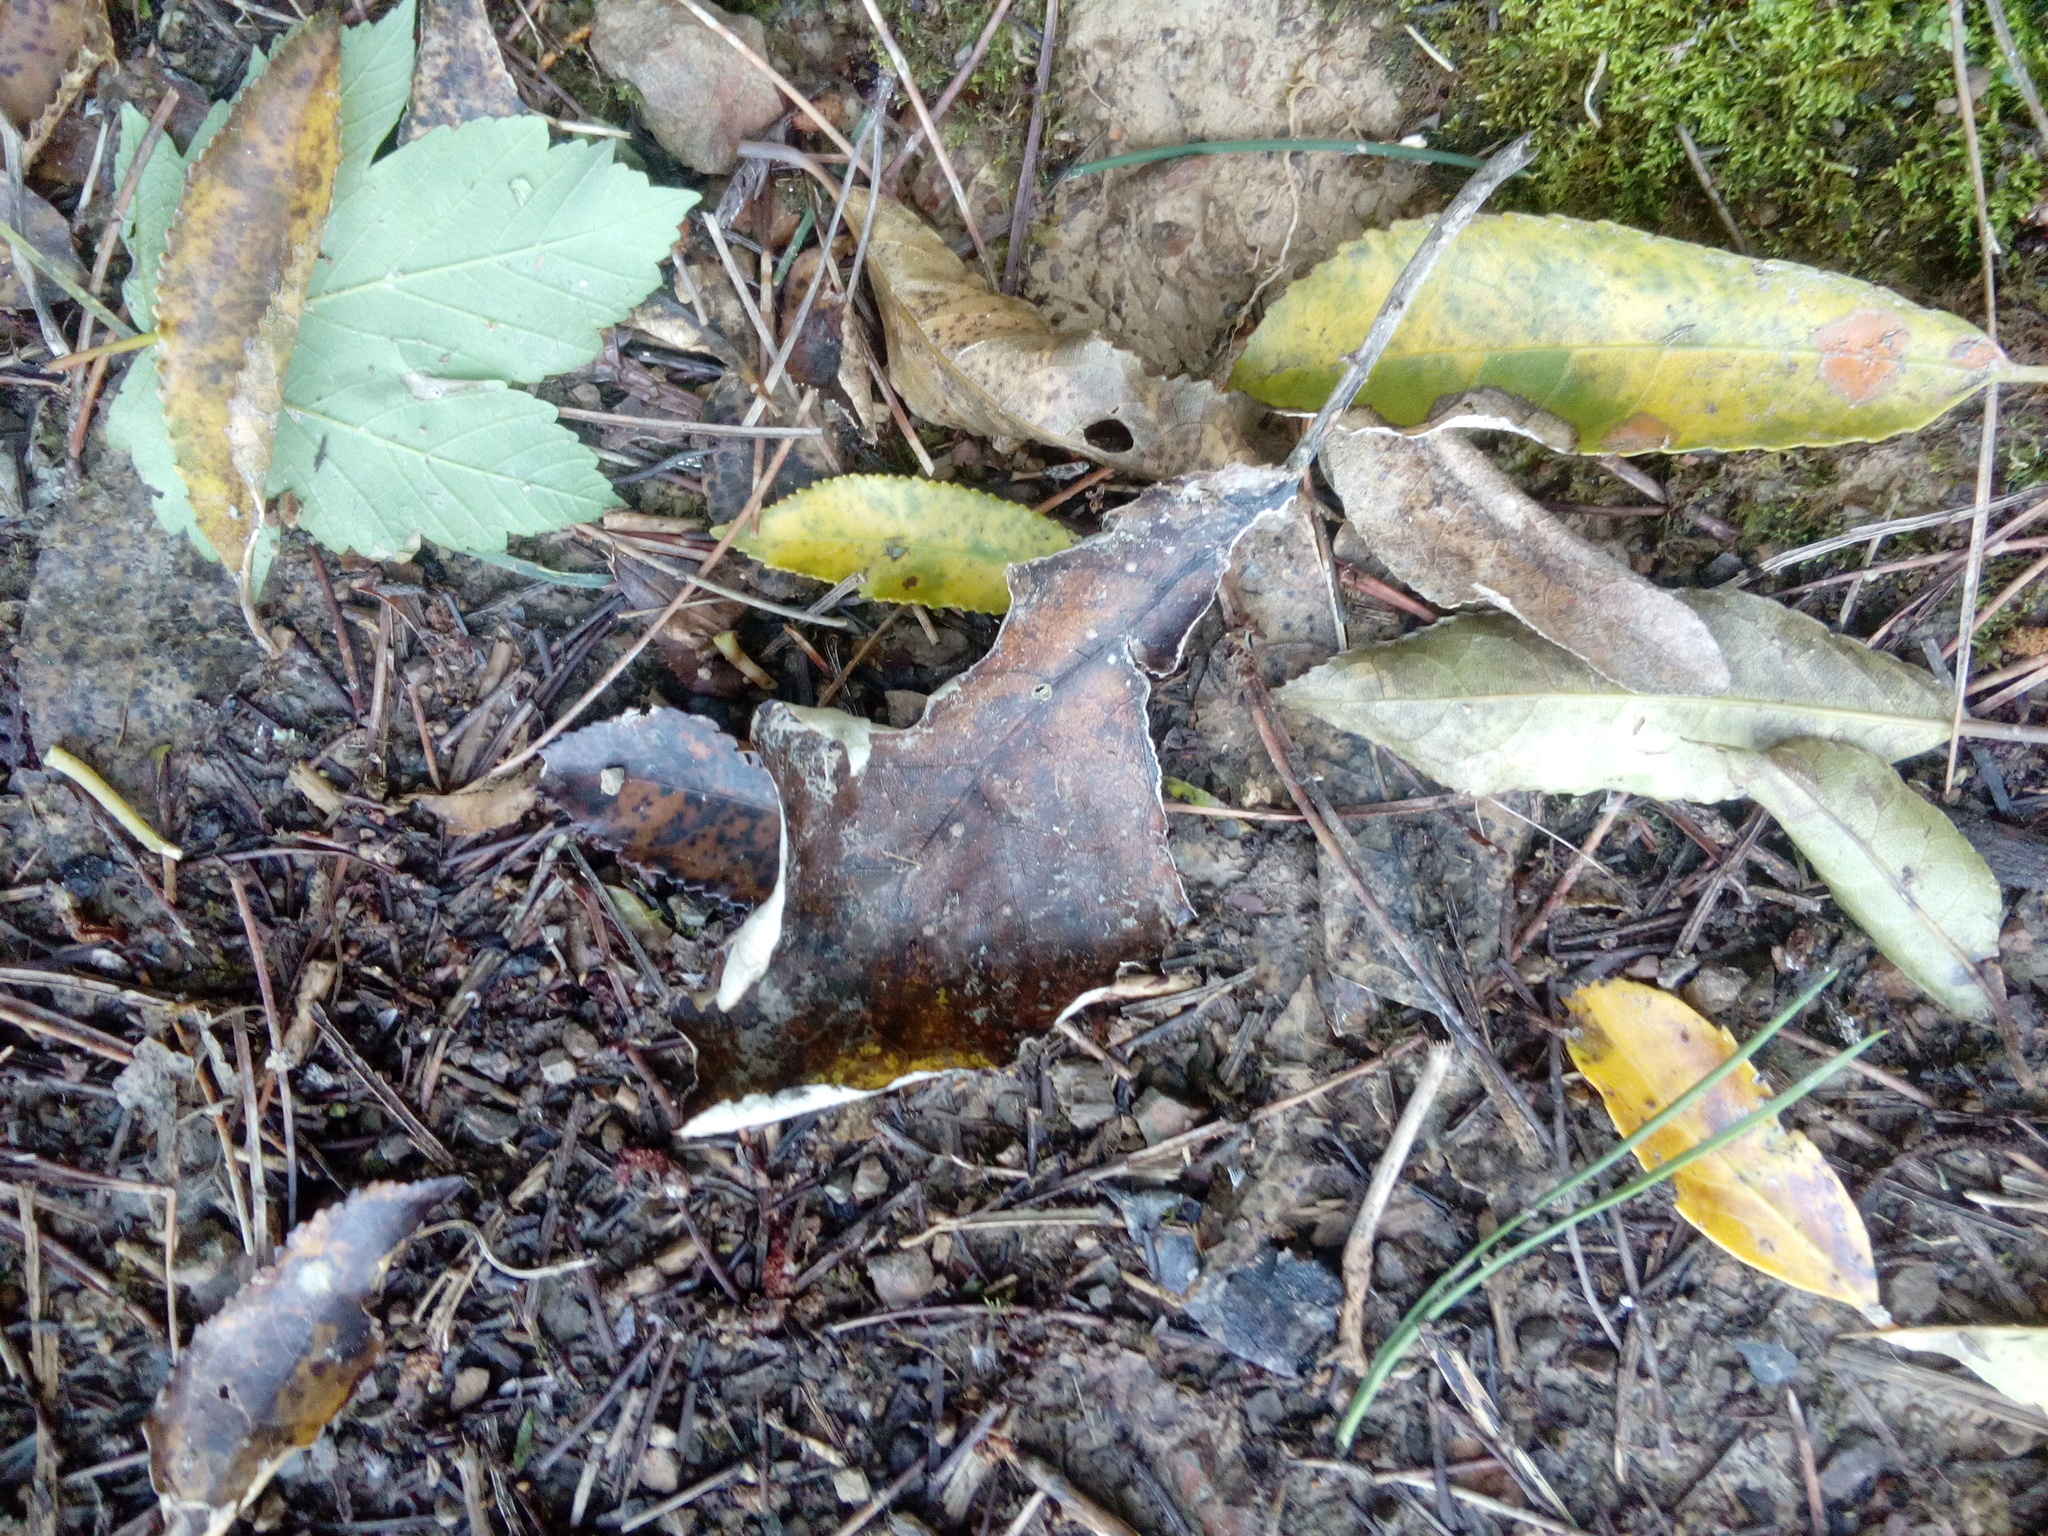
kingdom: Plantae
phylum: Tracheophyta
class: Magnoliopsida
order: Asterales
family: Asteraceae
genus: Brachyglottis
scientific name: Brachyglottis repanda
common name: Hedge ragwort
